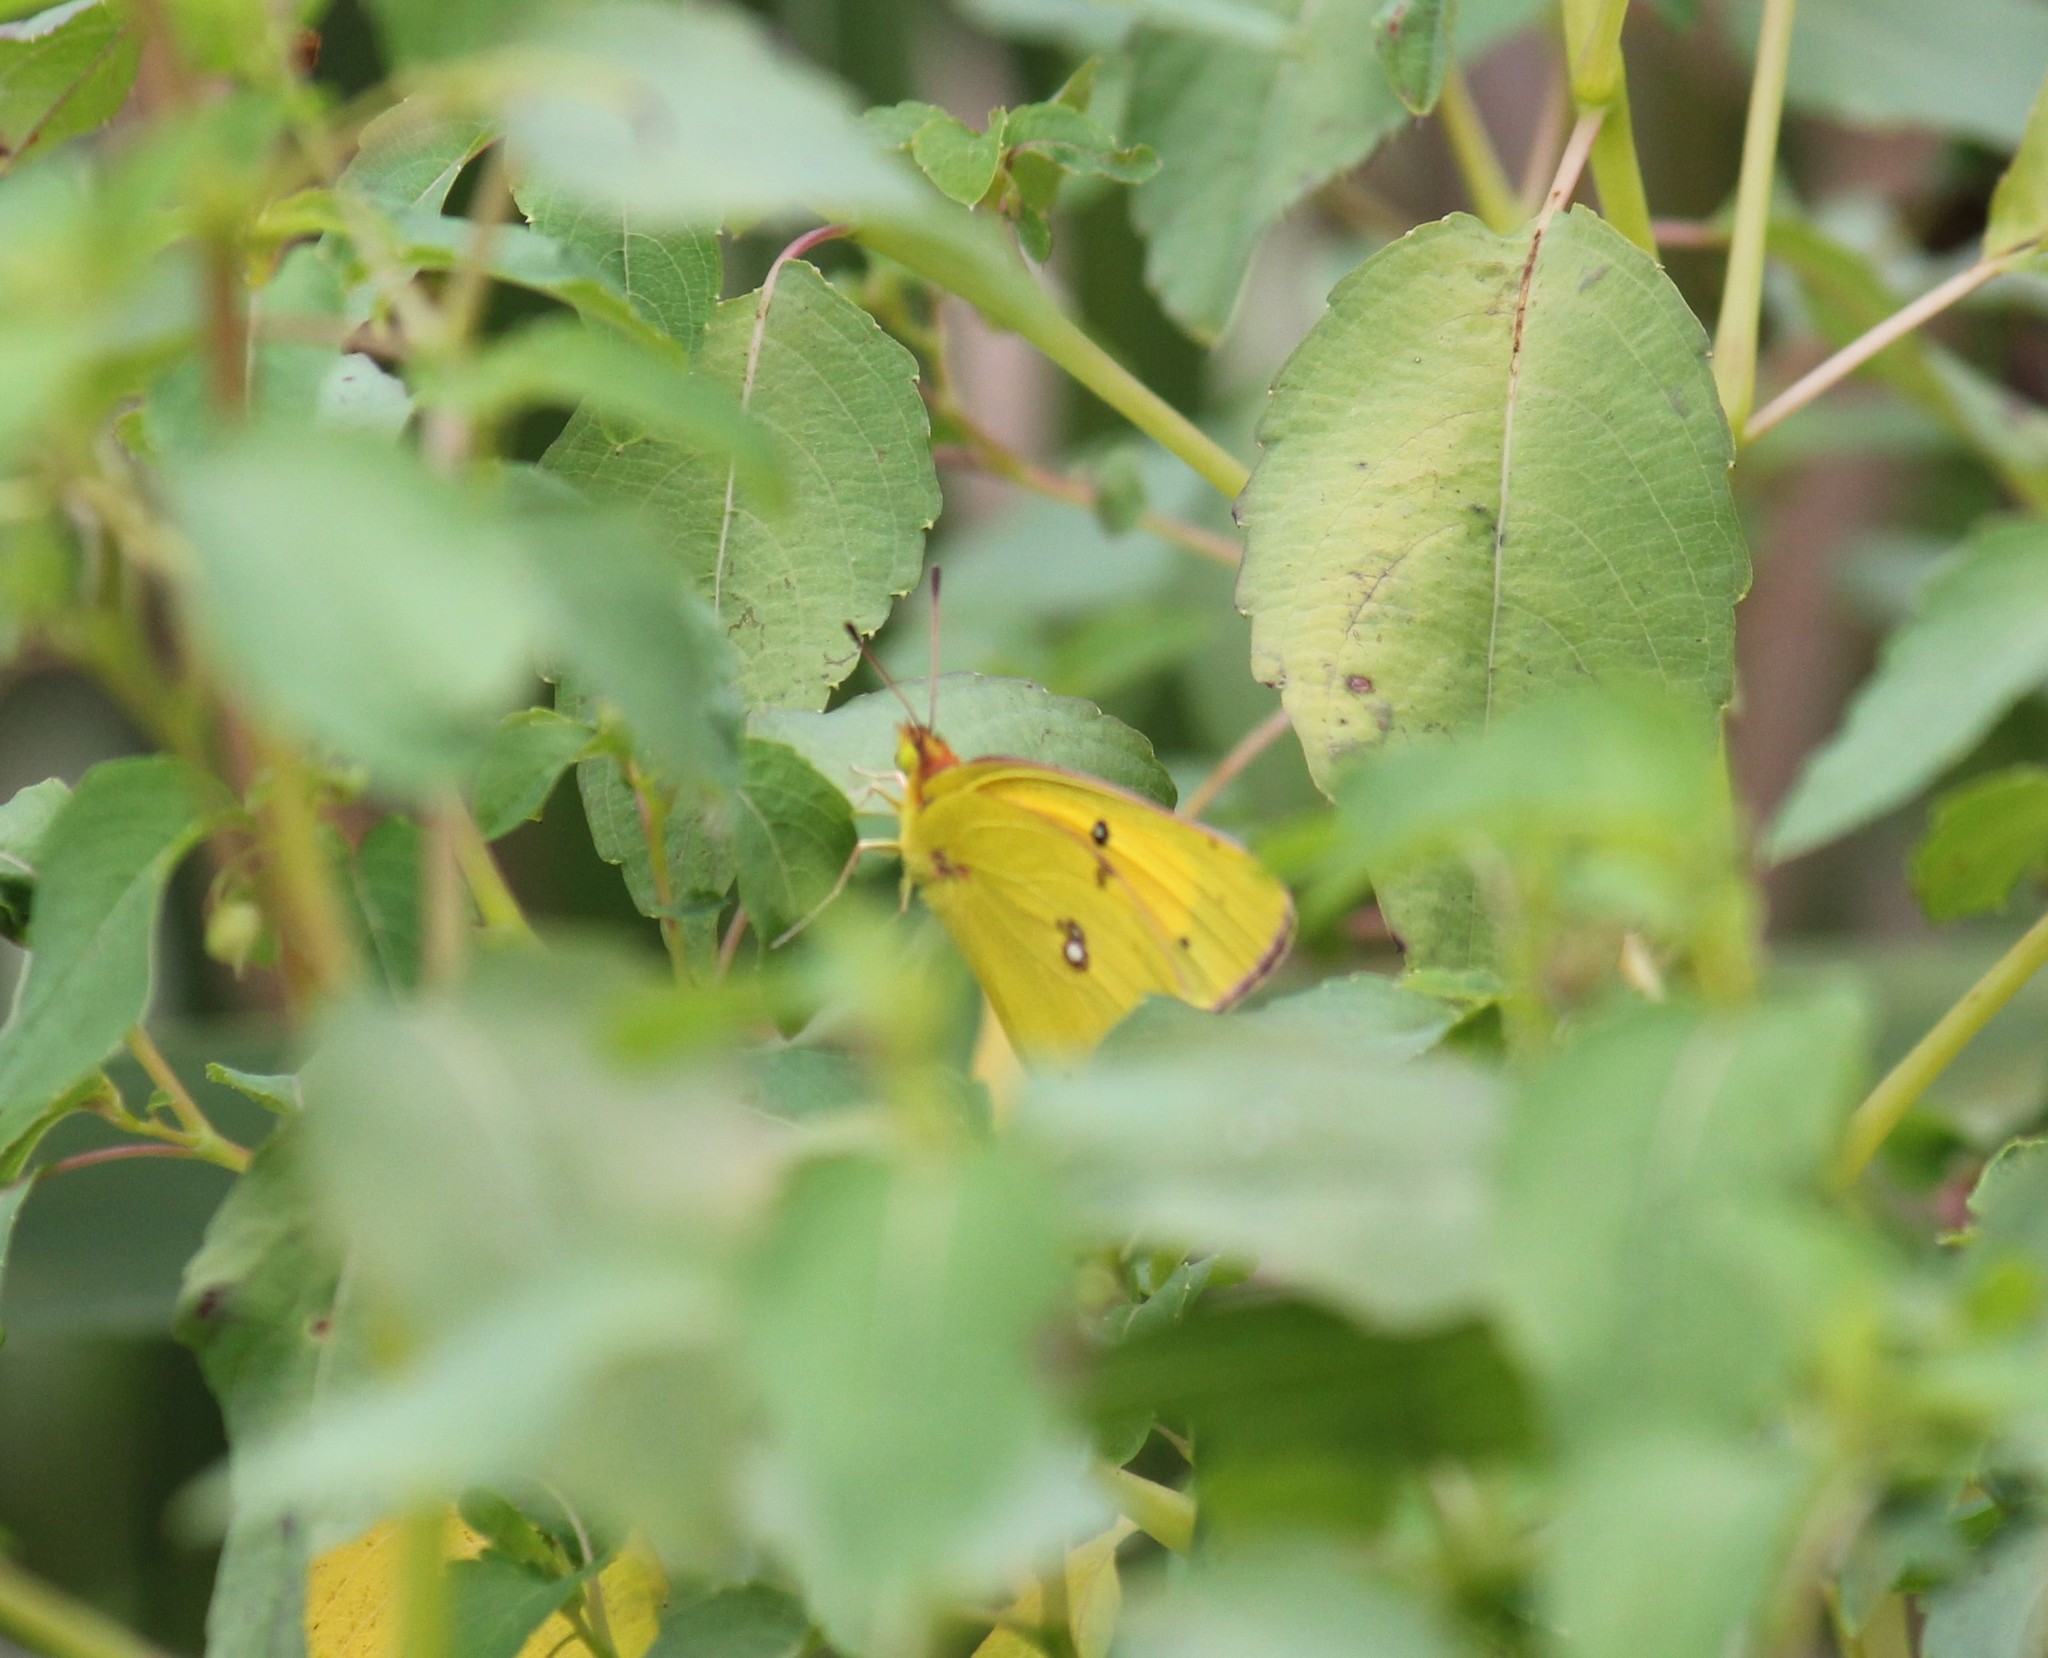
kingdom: Animalia
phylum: Arthropoda
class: Insecta
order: Lepidoptera
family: Pieridae
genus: Colias
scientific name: Colias eurytheme
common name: Alfalfa butterfly
